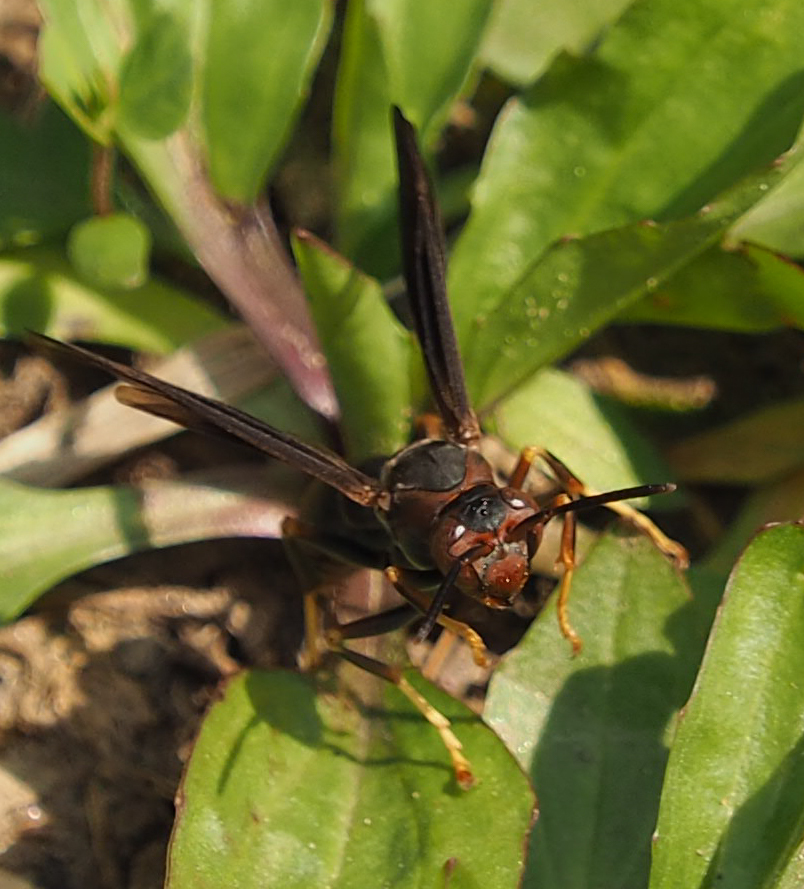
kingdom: Animalia
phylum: Arthropoda
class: Insecta
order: Hymenoptera
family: Eumenidae
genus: Polistes
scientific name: Polistes metricus
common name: Metric paper wasp
